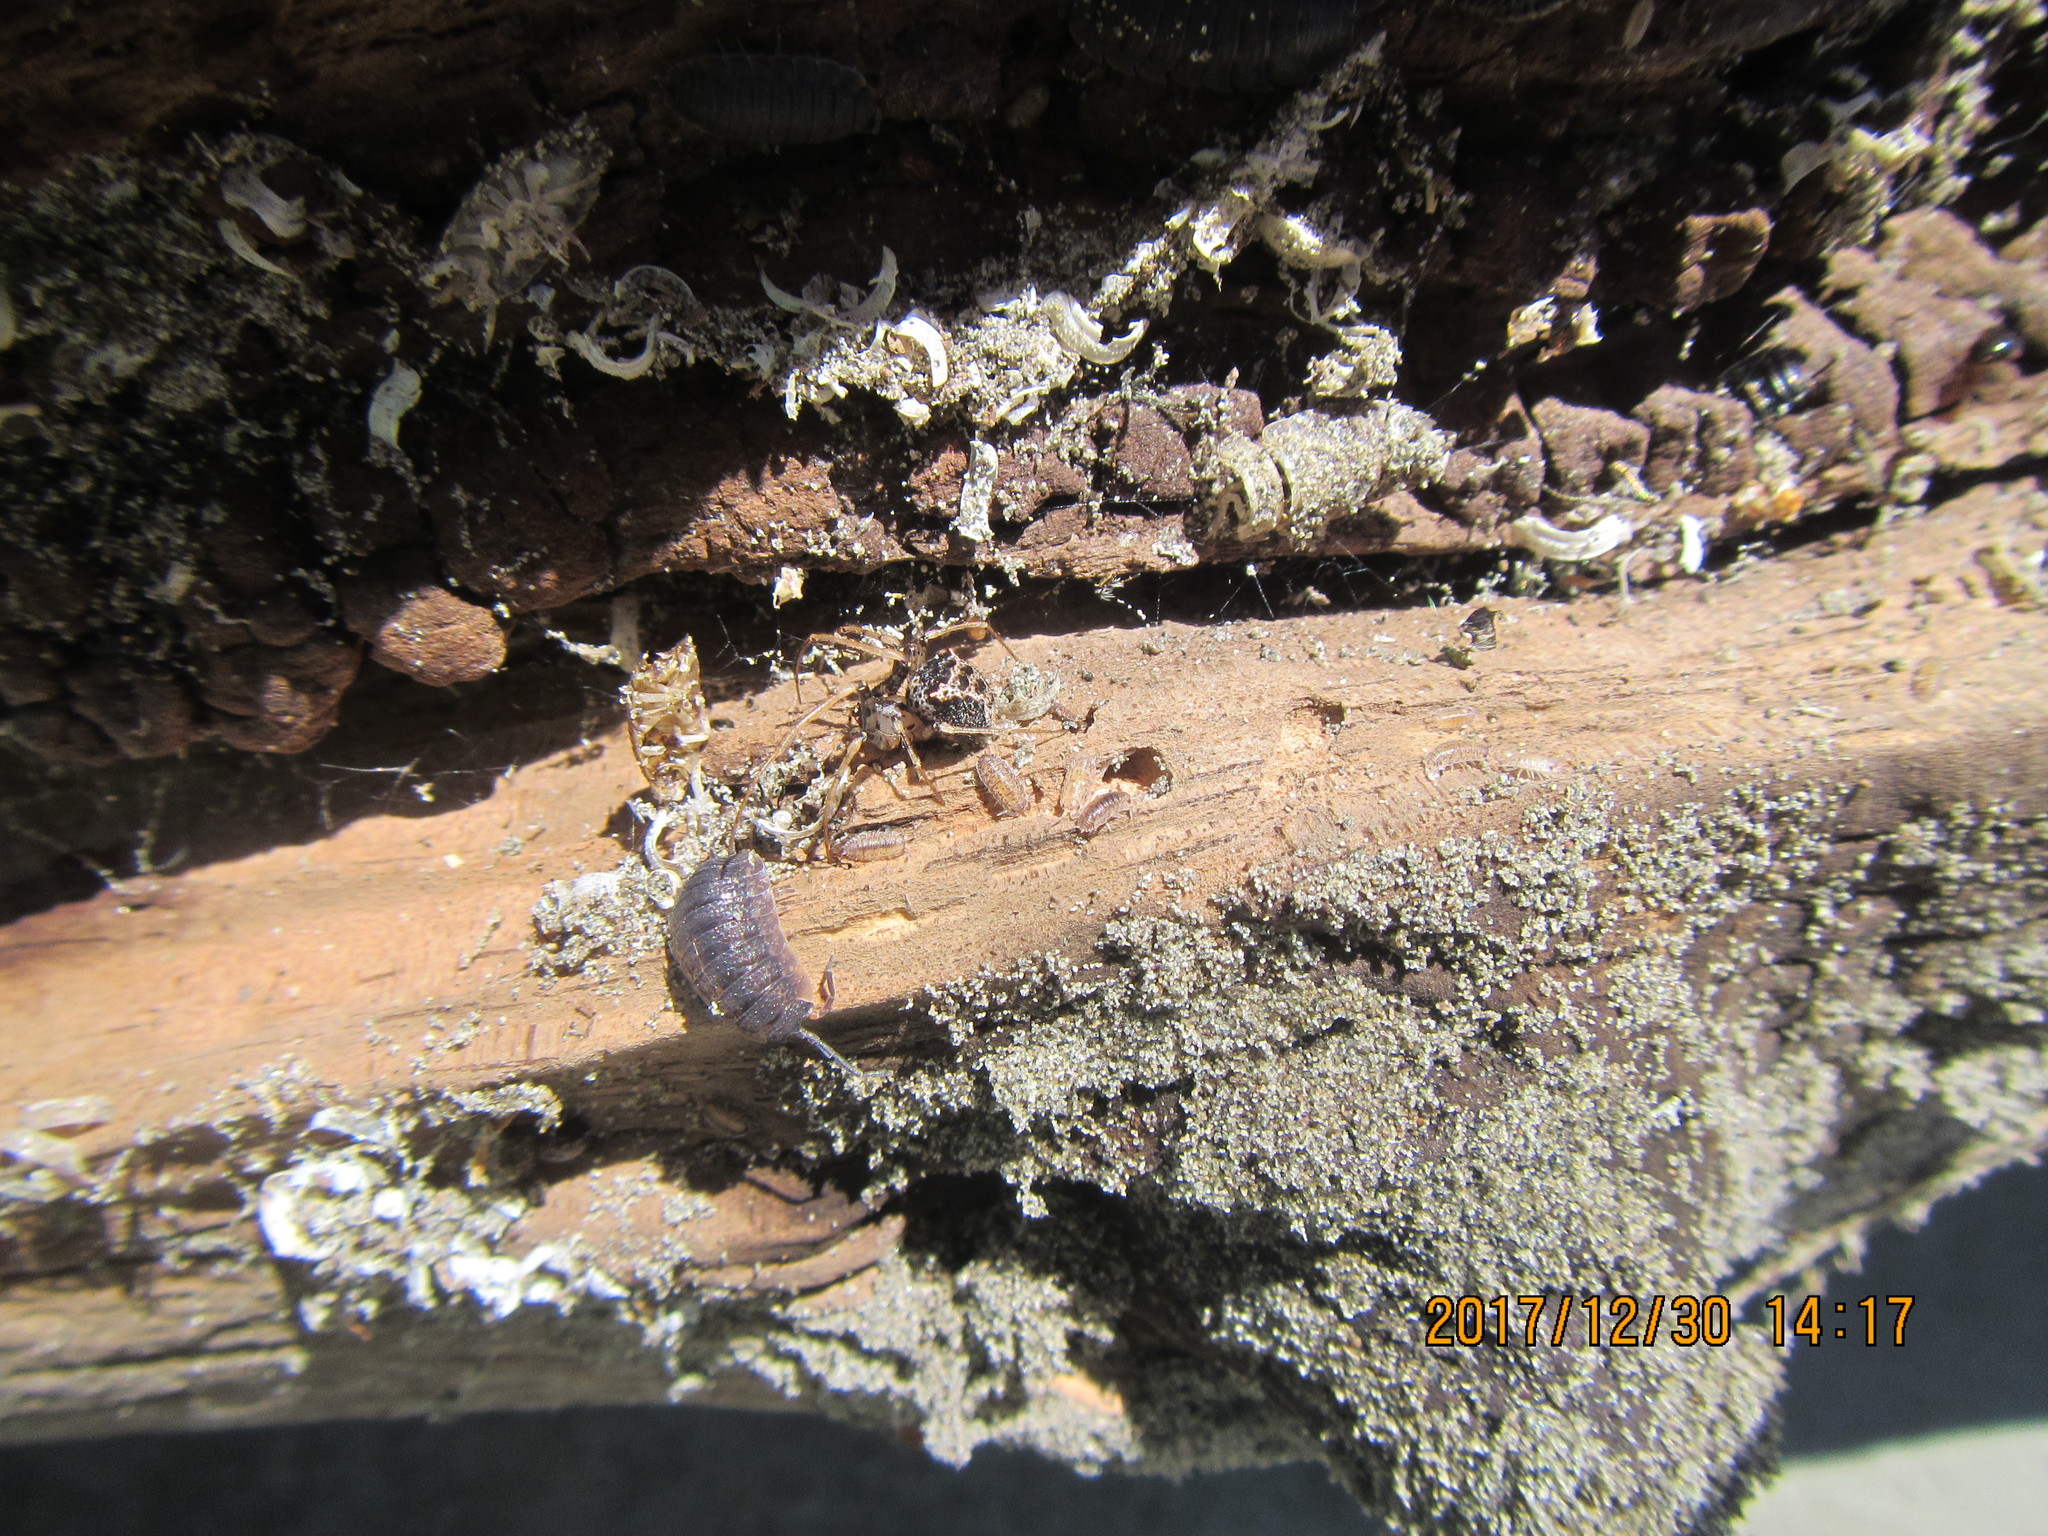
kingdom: Animalia
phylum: Arthropoda
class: Arachnida
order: Araneae
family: Mimetidae
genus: Australomimetus
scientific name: Australomimetus hartleyensis
